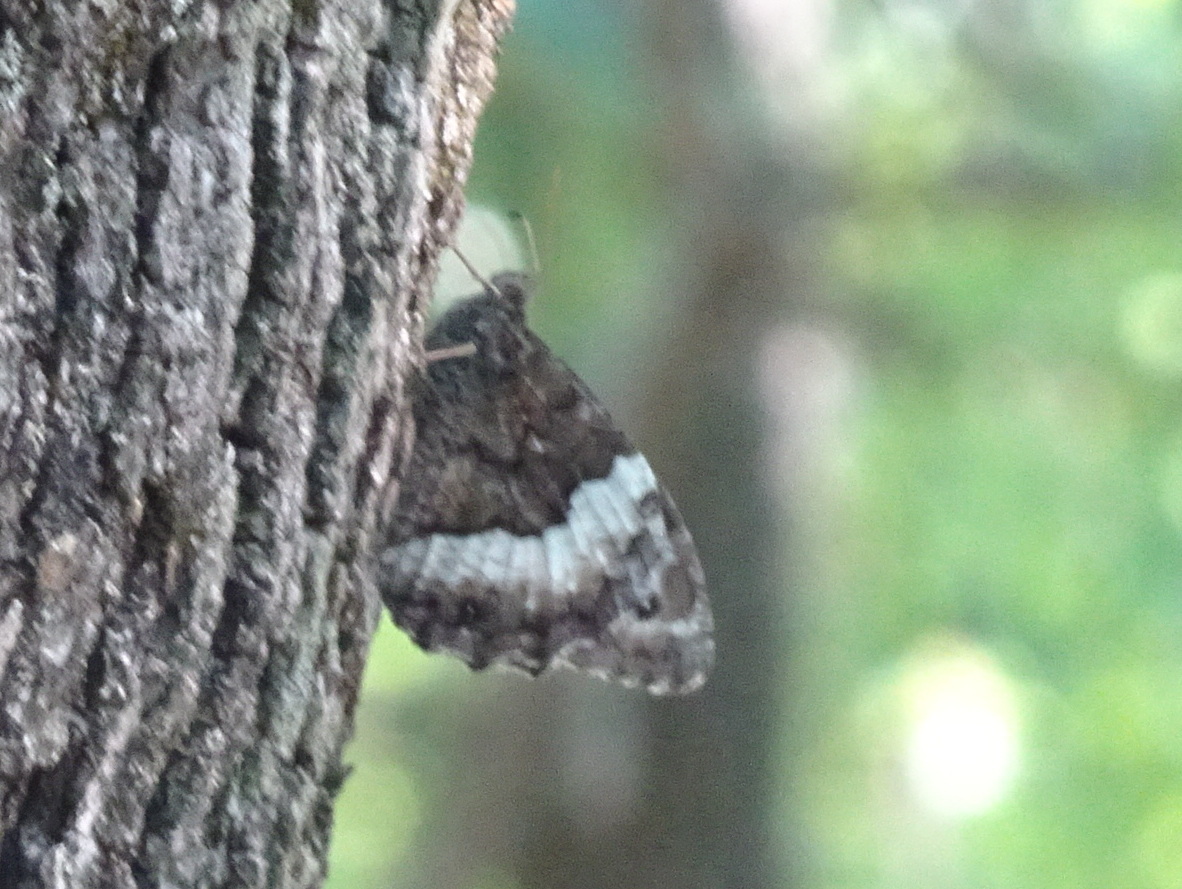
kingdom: Animalia
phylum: Arthropoda
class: Insecta
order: Lepidoptera
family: Nymphalidae
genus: Hipparchia
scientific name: Hipparchia fagi
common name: Woodland grayling
